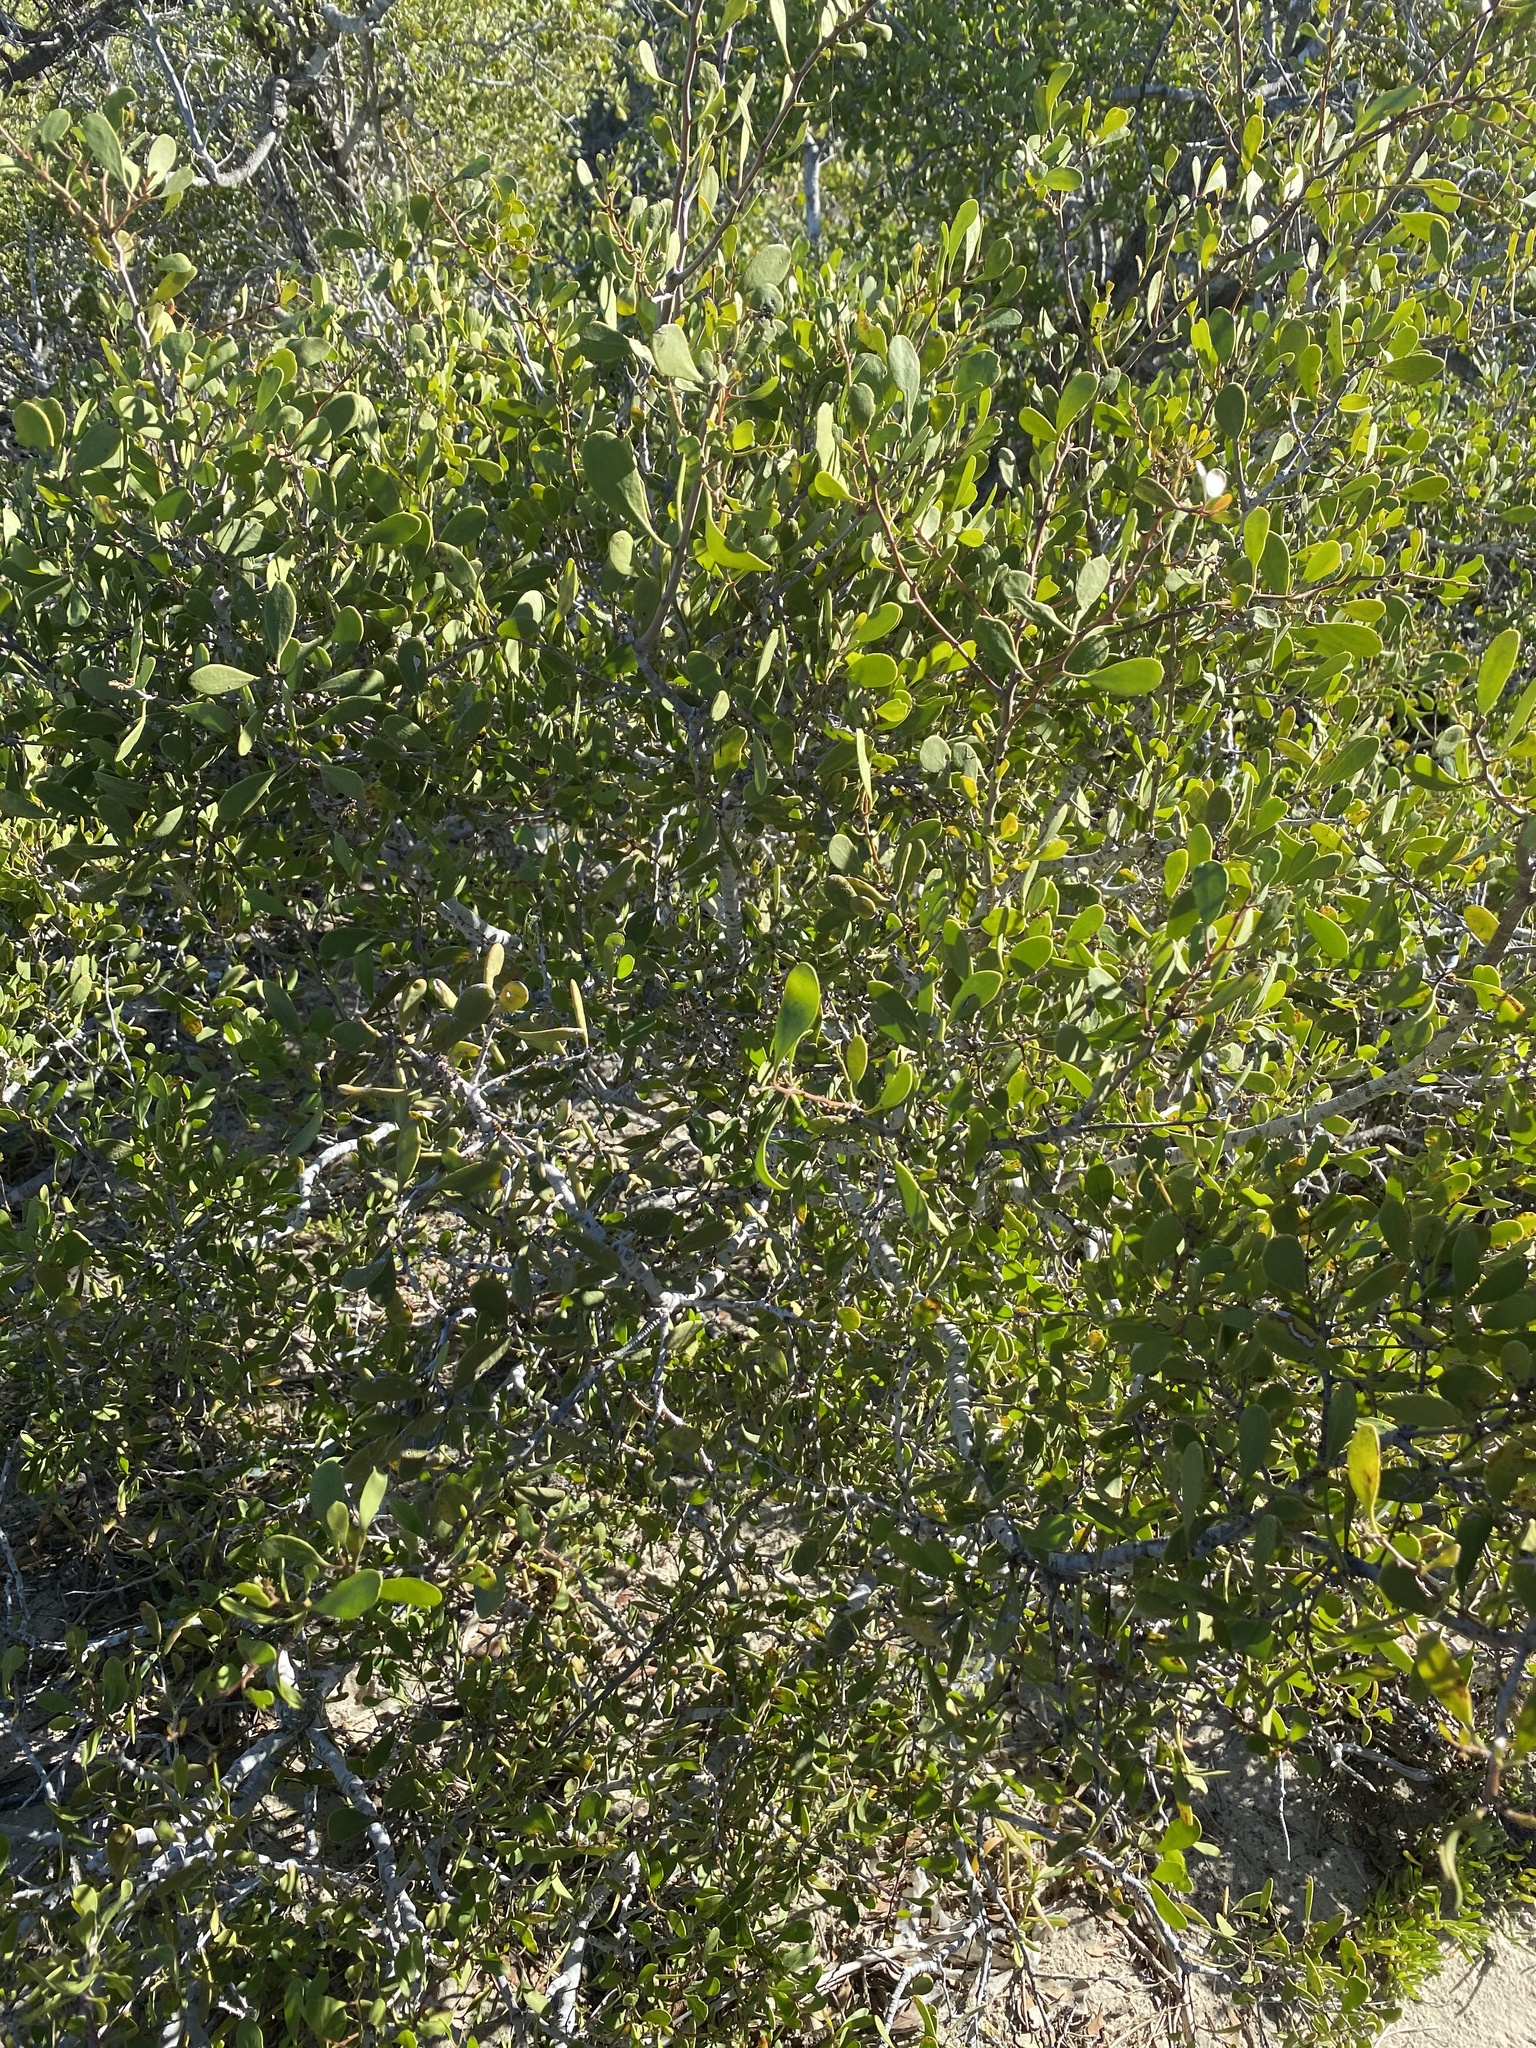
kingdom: Plantae
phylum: Tracheophyta
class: Magnoliopsida
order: Celastrales
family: Celastraceae
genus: Tricerma
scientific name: Tricerma phyllanthoides
